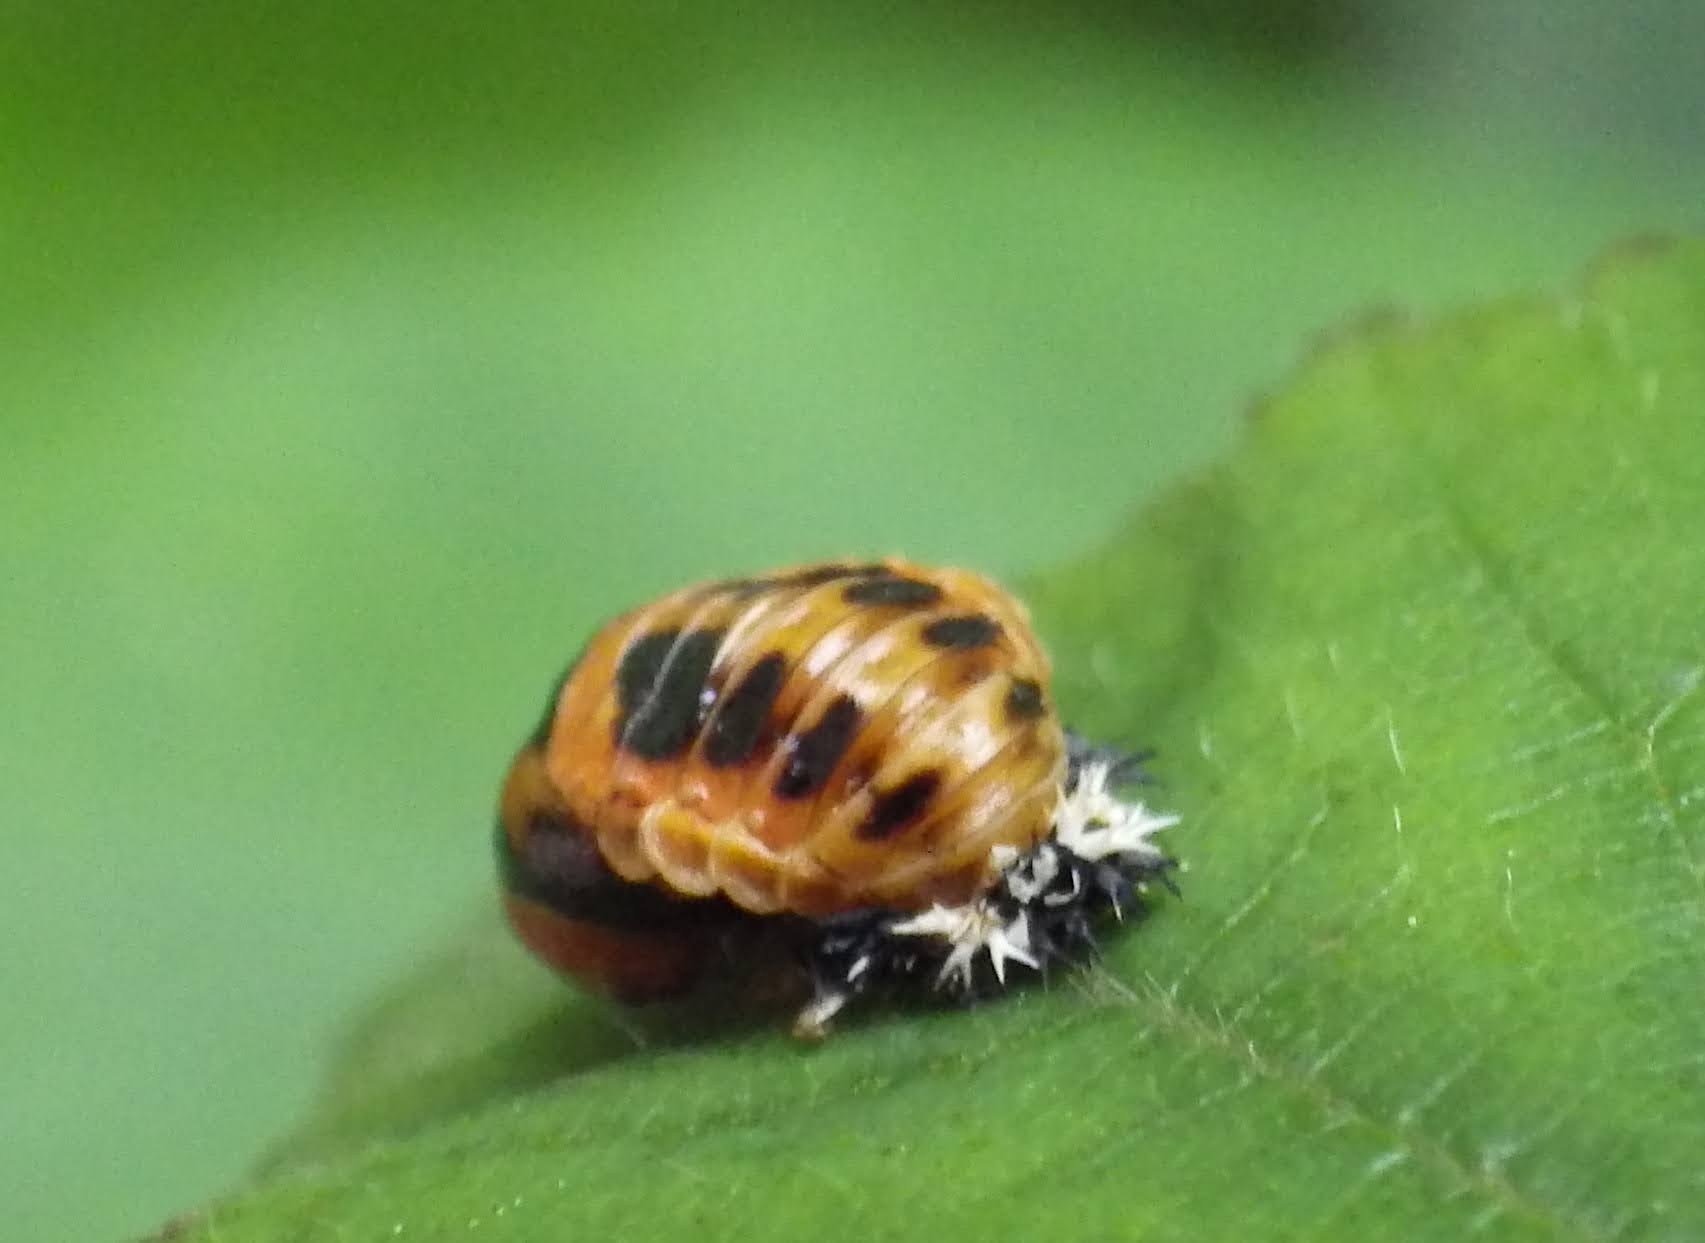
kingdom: Animalia
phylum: Arthropoda
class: Insecta
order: Coleoptera
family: Coccinellidae
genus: Harmonia
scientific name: Harmonia axyridis
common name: Harlequin ladybird
